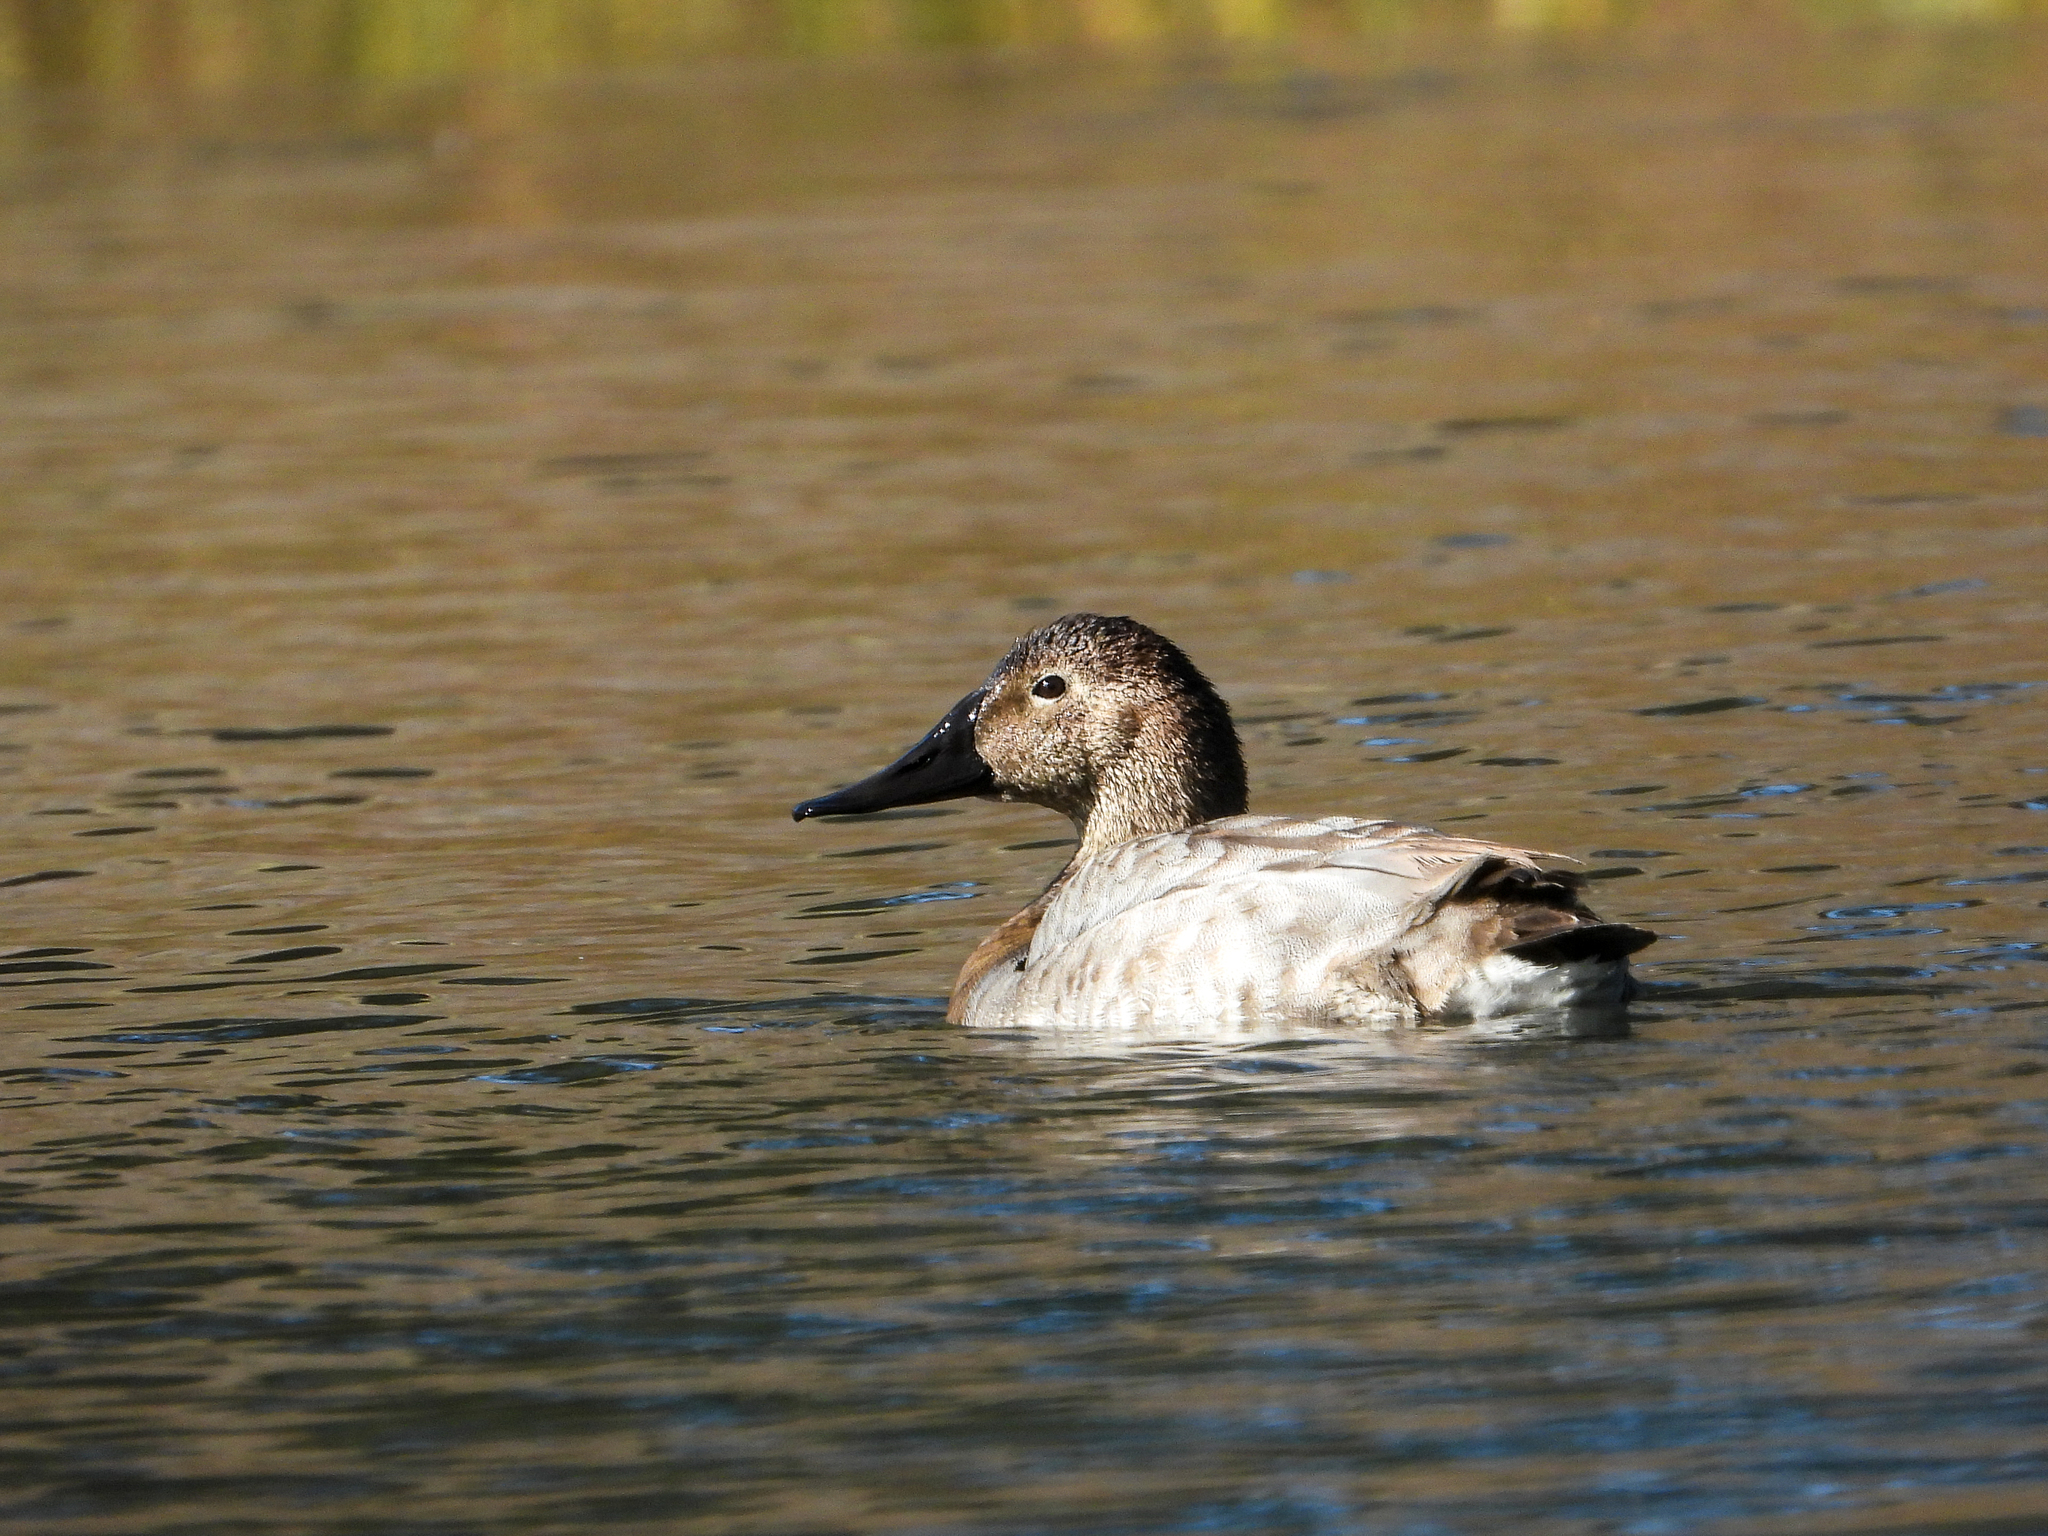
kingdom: Animalia
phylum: Chordata
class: Aves
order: Anseriformes
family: Anatidae
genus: Aythya
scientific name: Aythya valisineria
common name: Canvasback
